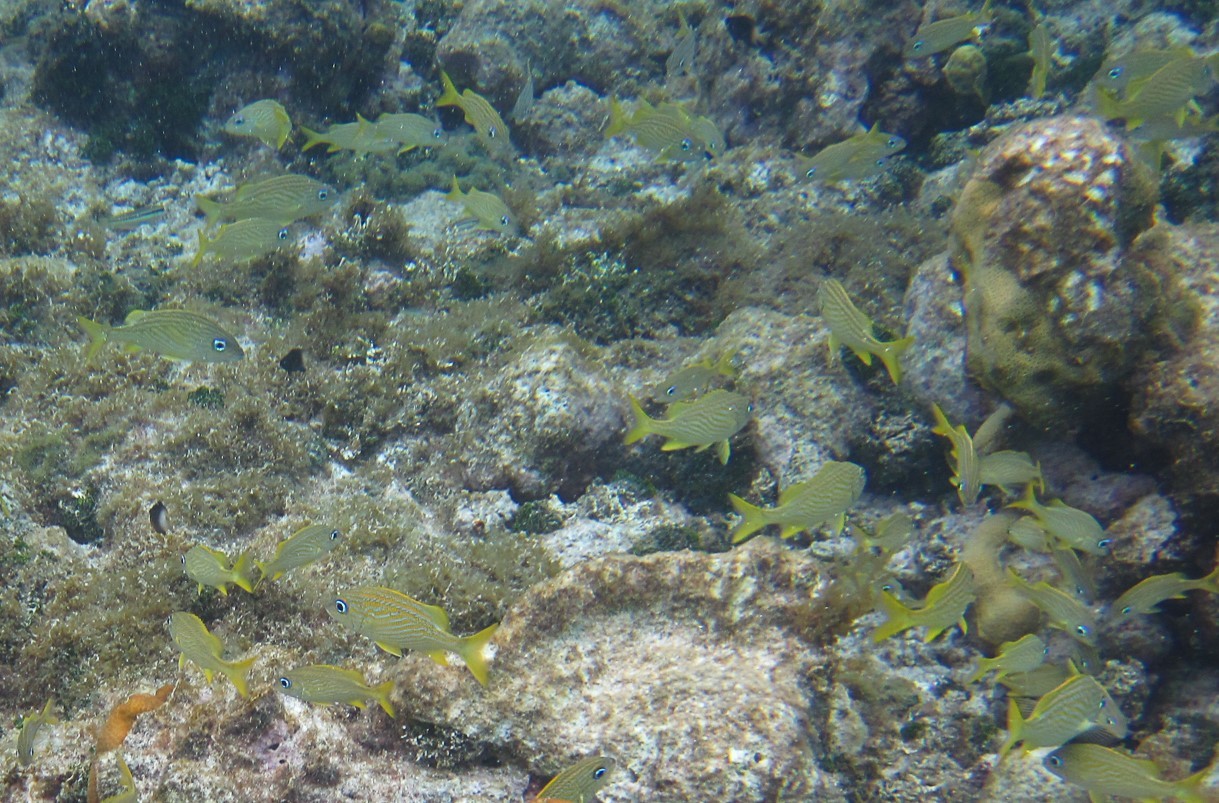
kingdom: Animalia
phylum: Chordata
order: Perciformes
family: Haemulidae
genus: Haemulon
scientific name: Haemulon flavolineatum
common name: French grunt
